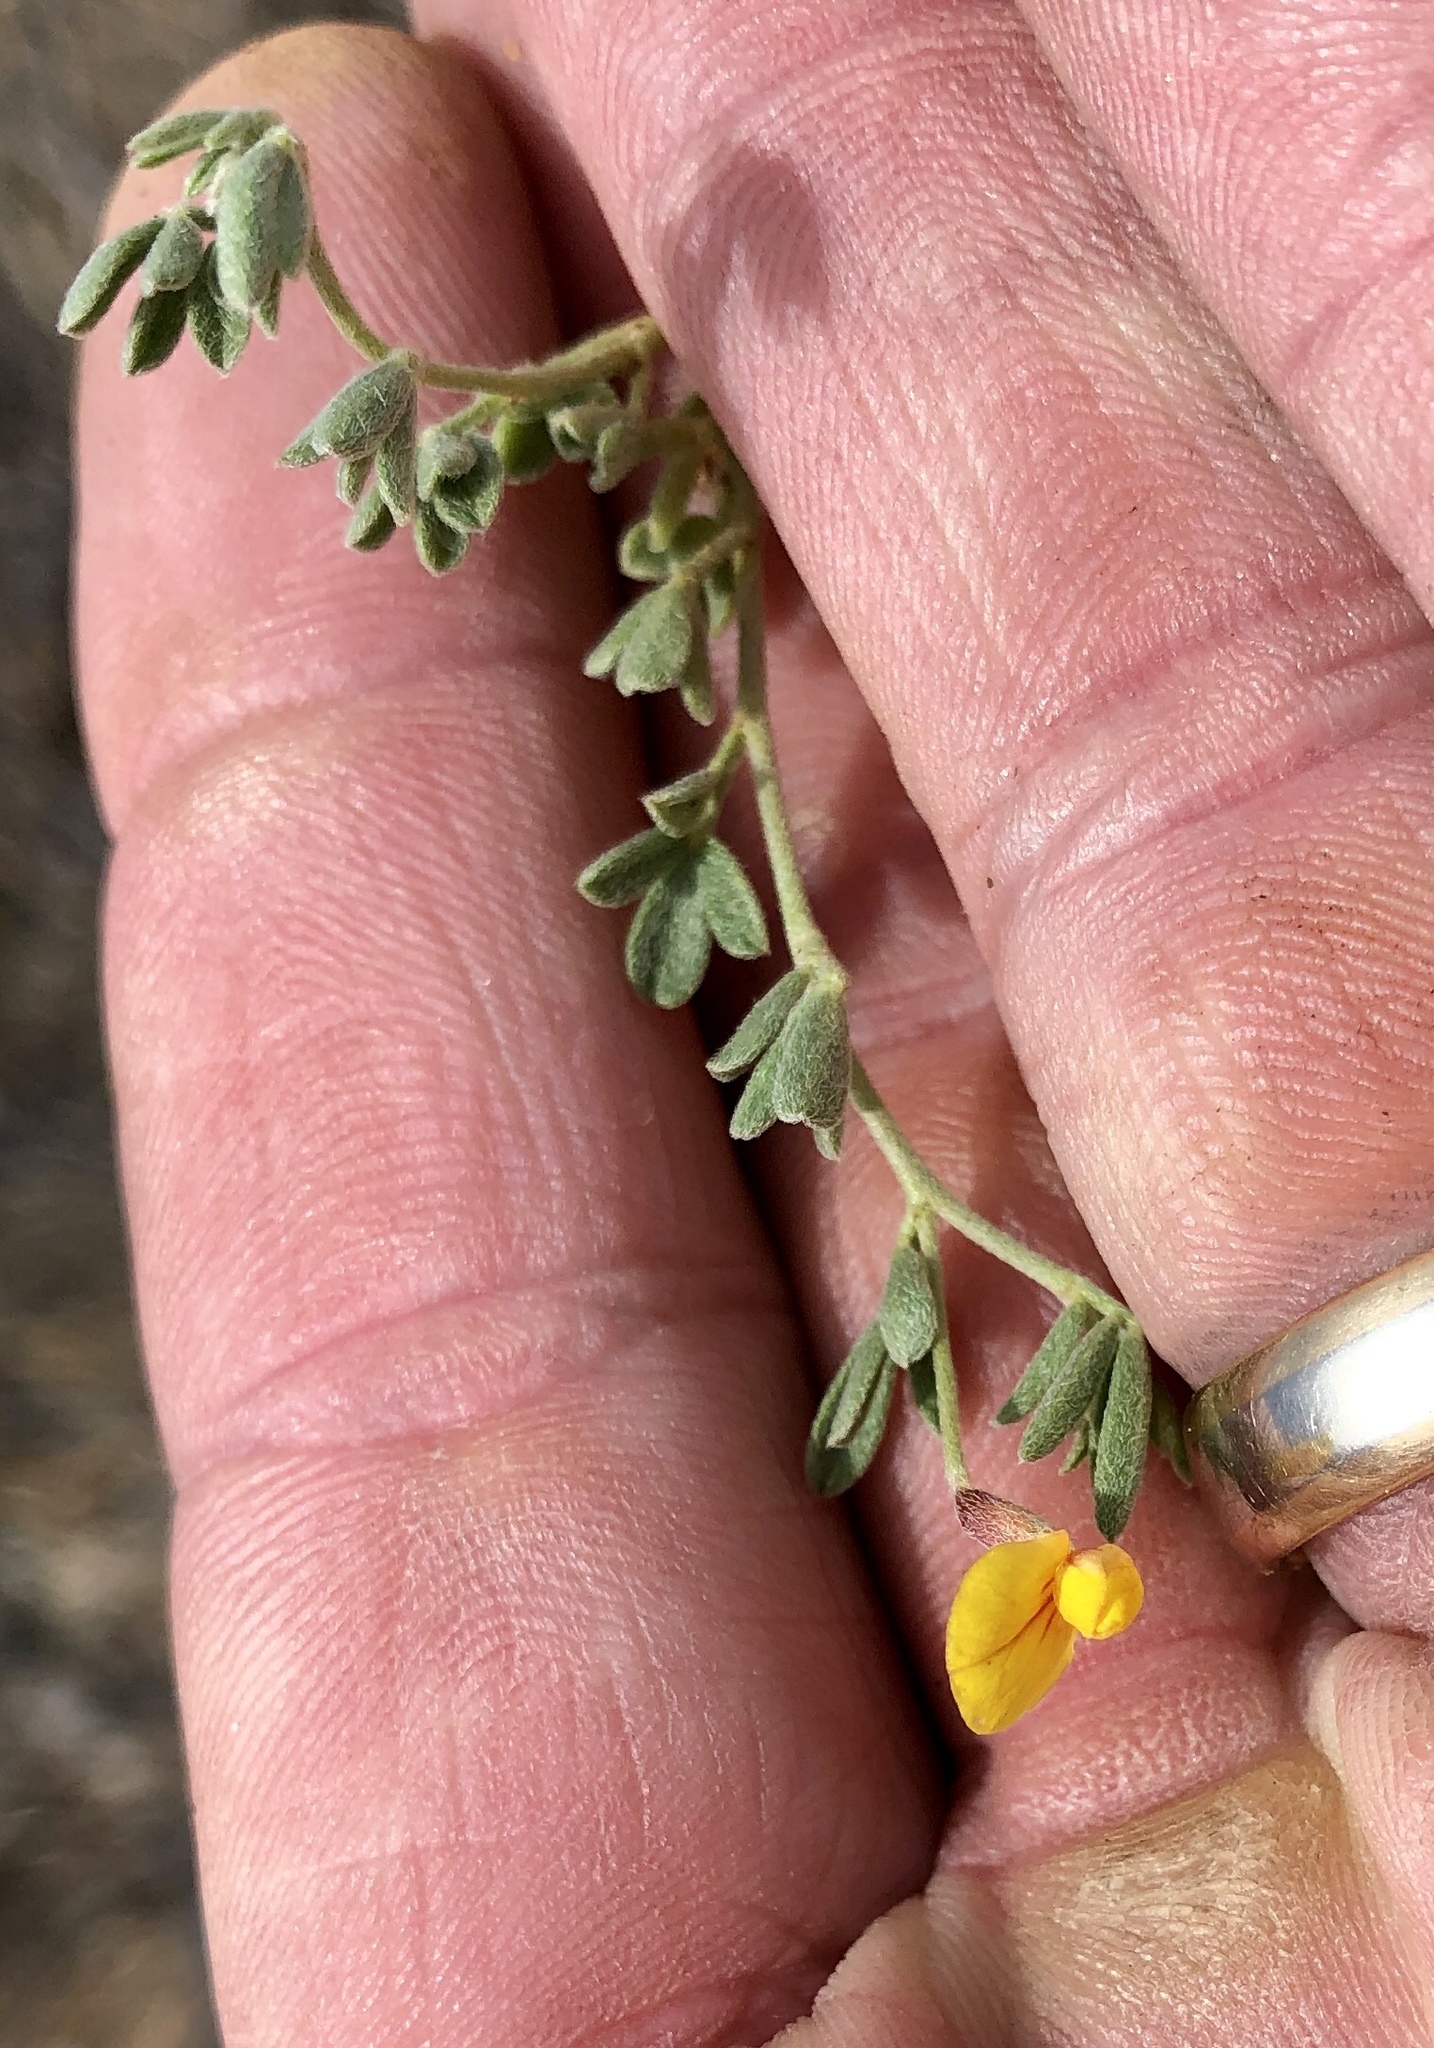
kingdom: Plantae
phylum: Tracheophyta
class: Magnoliopsida
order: Fabales
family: Fabaceae
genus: Acmispon
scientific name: Acmispon oroboides
